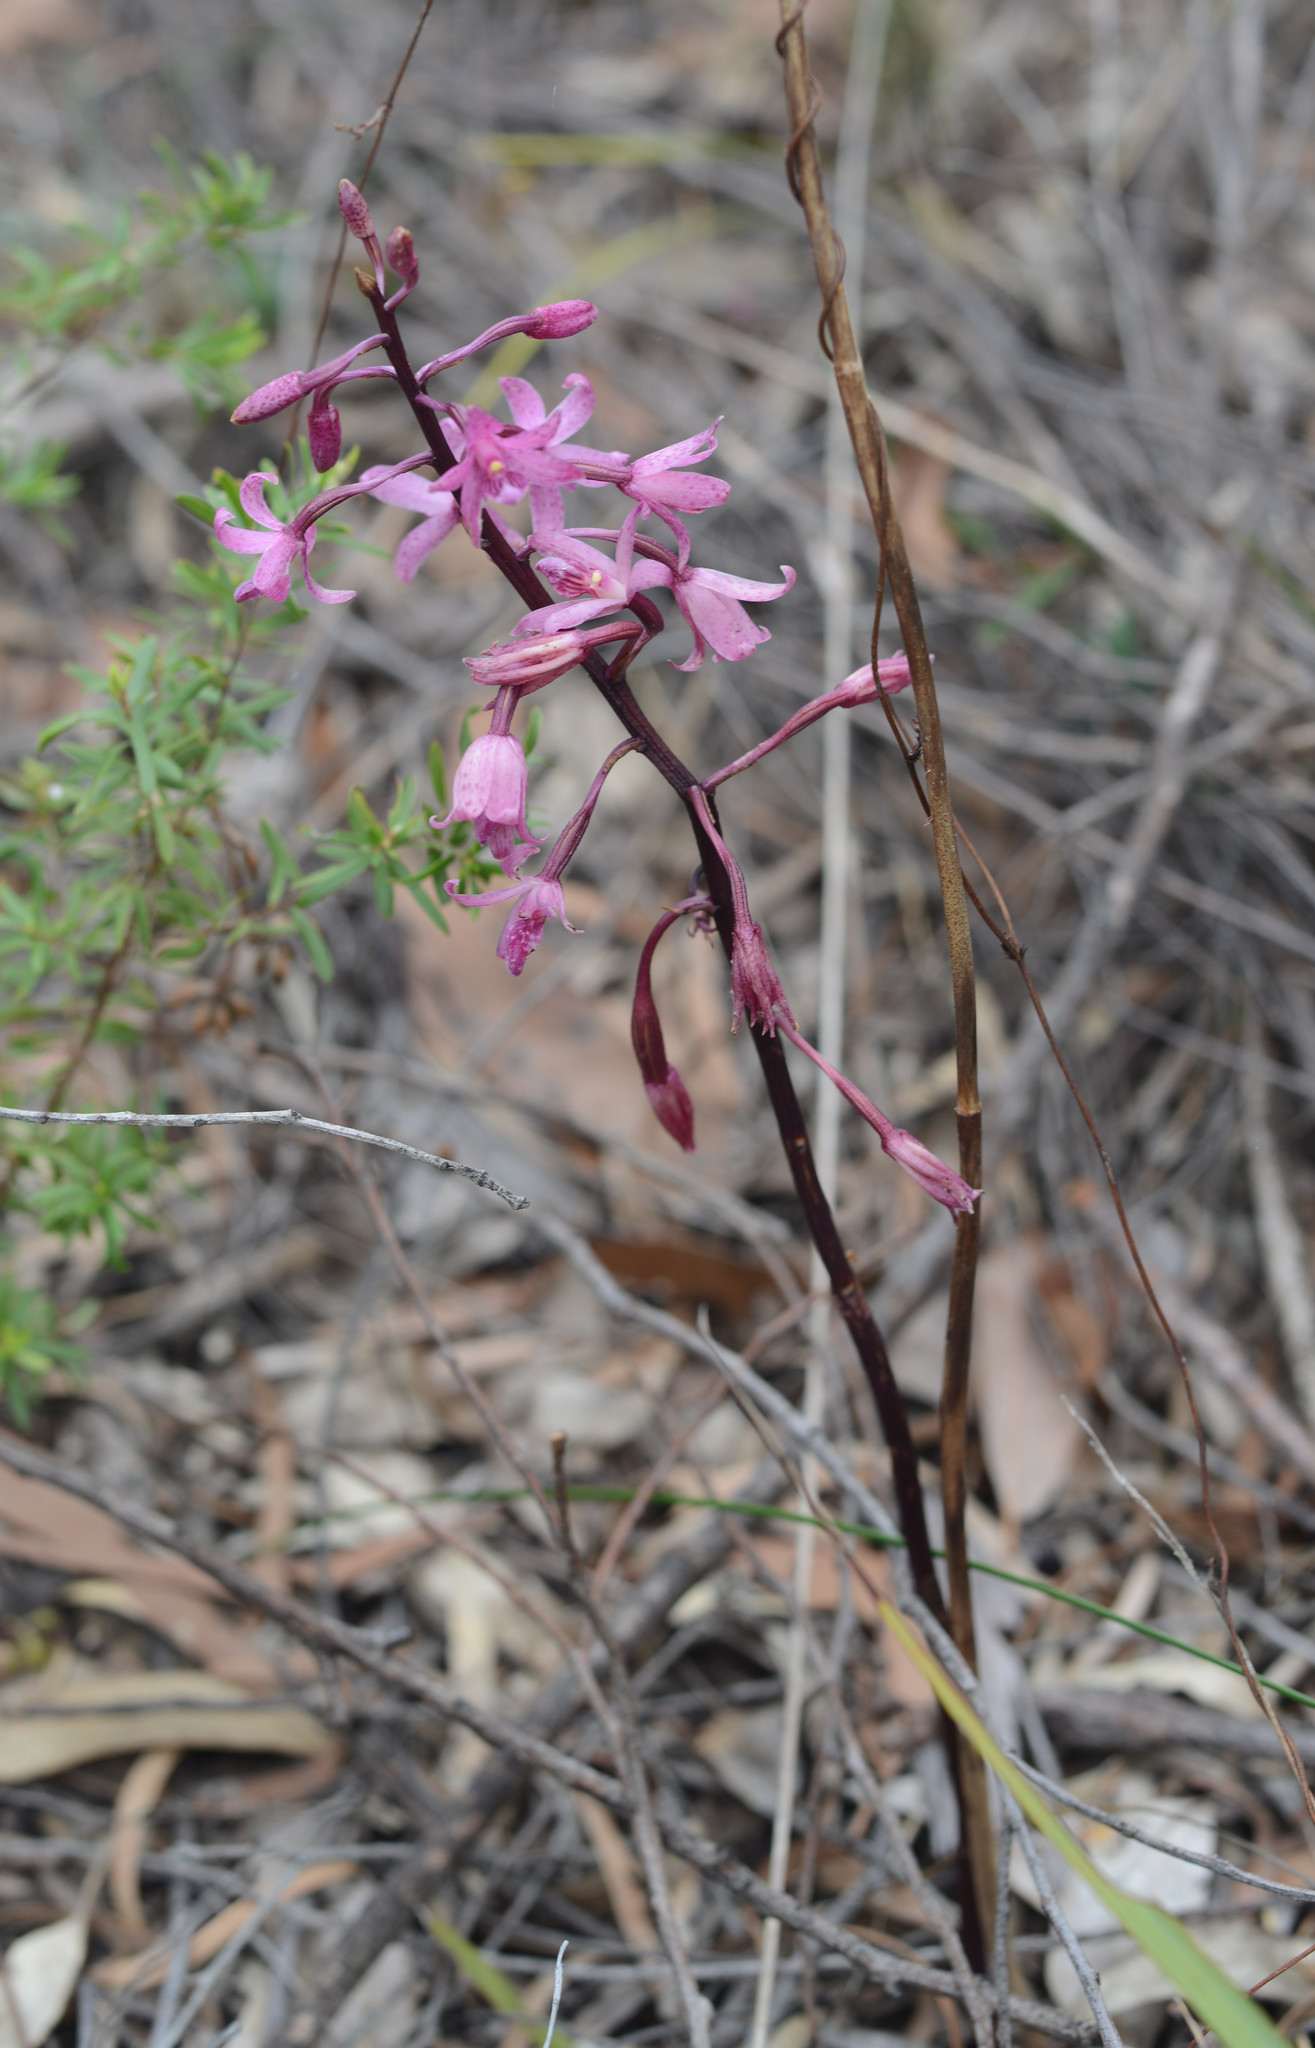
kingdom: Plantae
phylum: Tracheophyta
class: Liliopsida
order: Asparagales
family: Orchidaceae
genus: Dipodium
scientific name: Dipodium roseum
